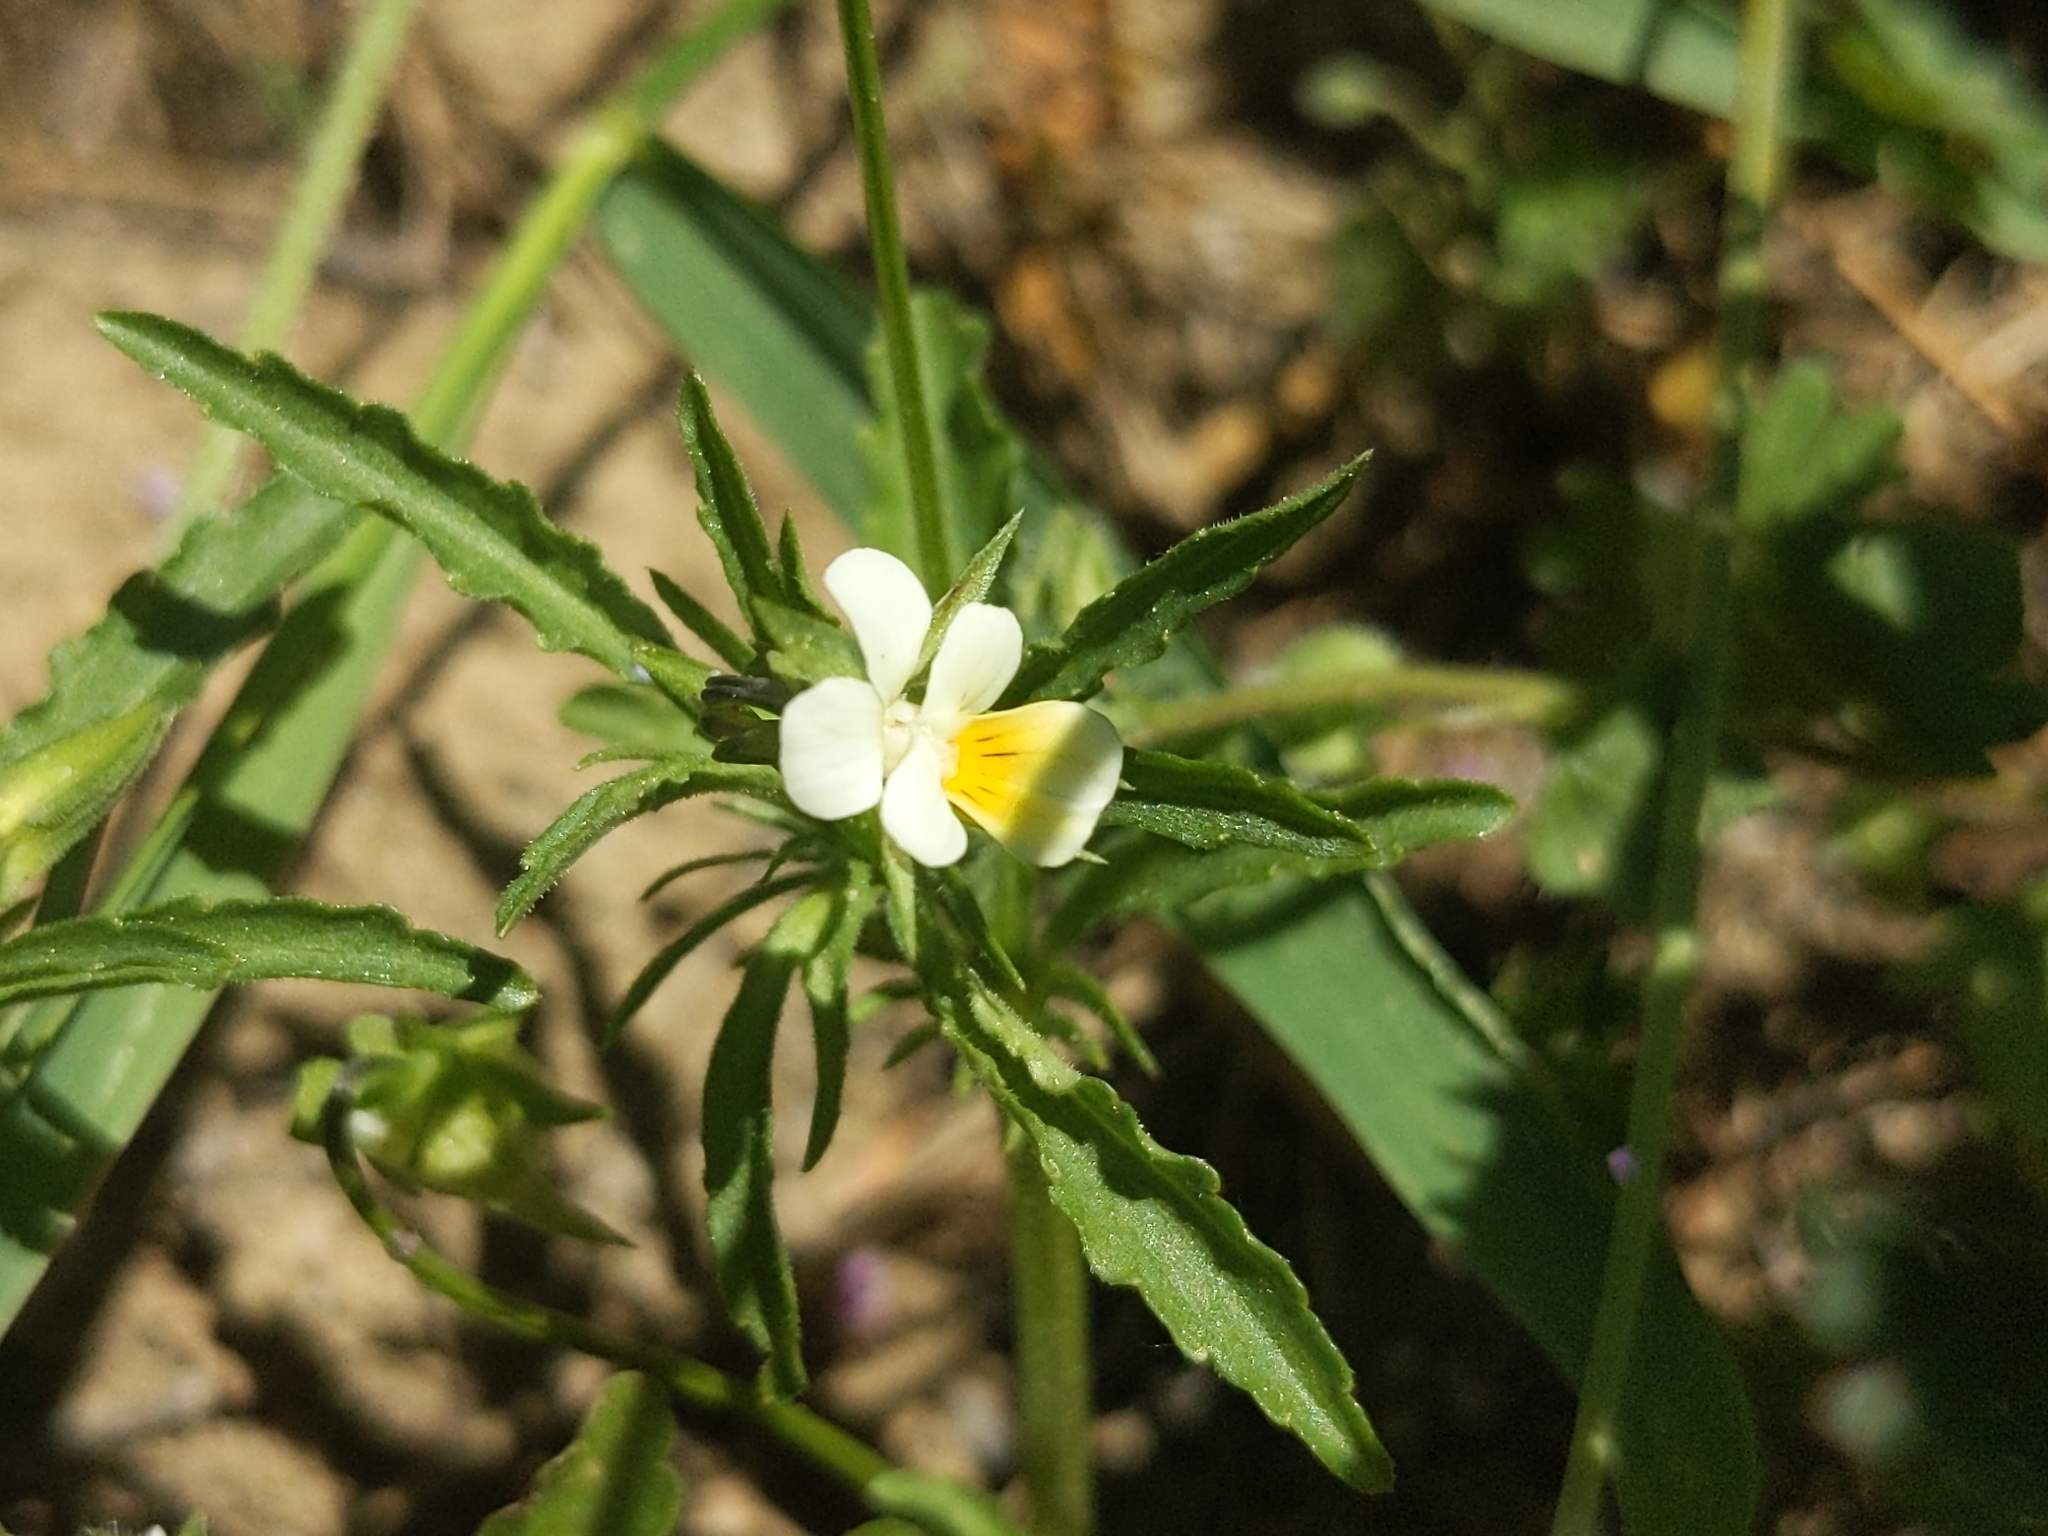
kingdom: Plantae
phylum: Tracheophyta
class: Magnoliopsida
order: Malpighiales
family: Violaceae
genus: Viola
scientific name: Viola arvensis
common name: Field pansy
